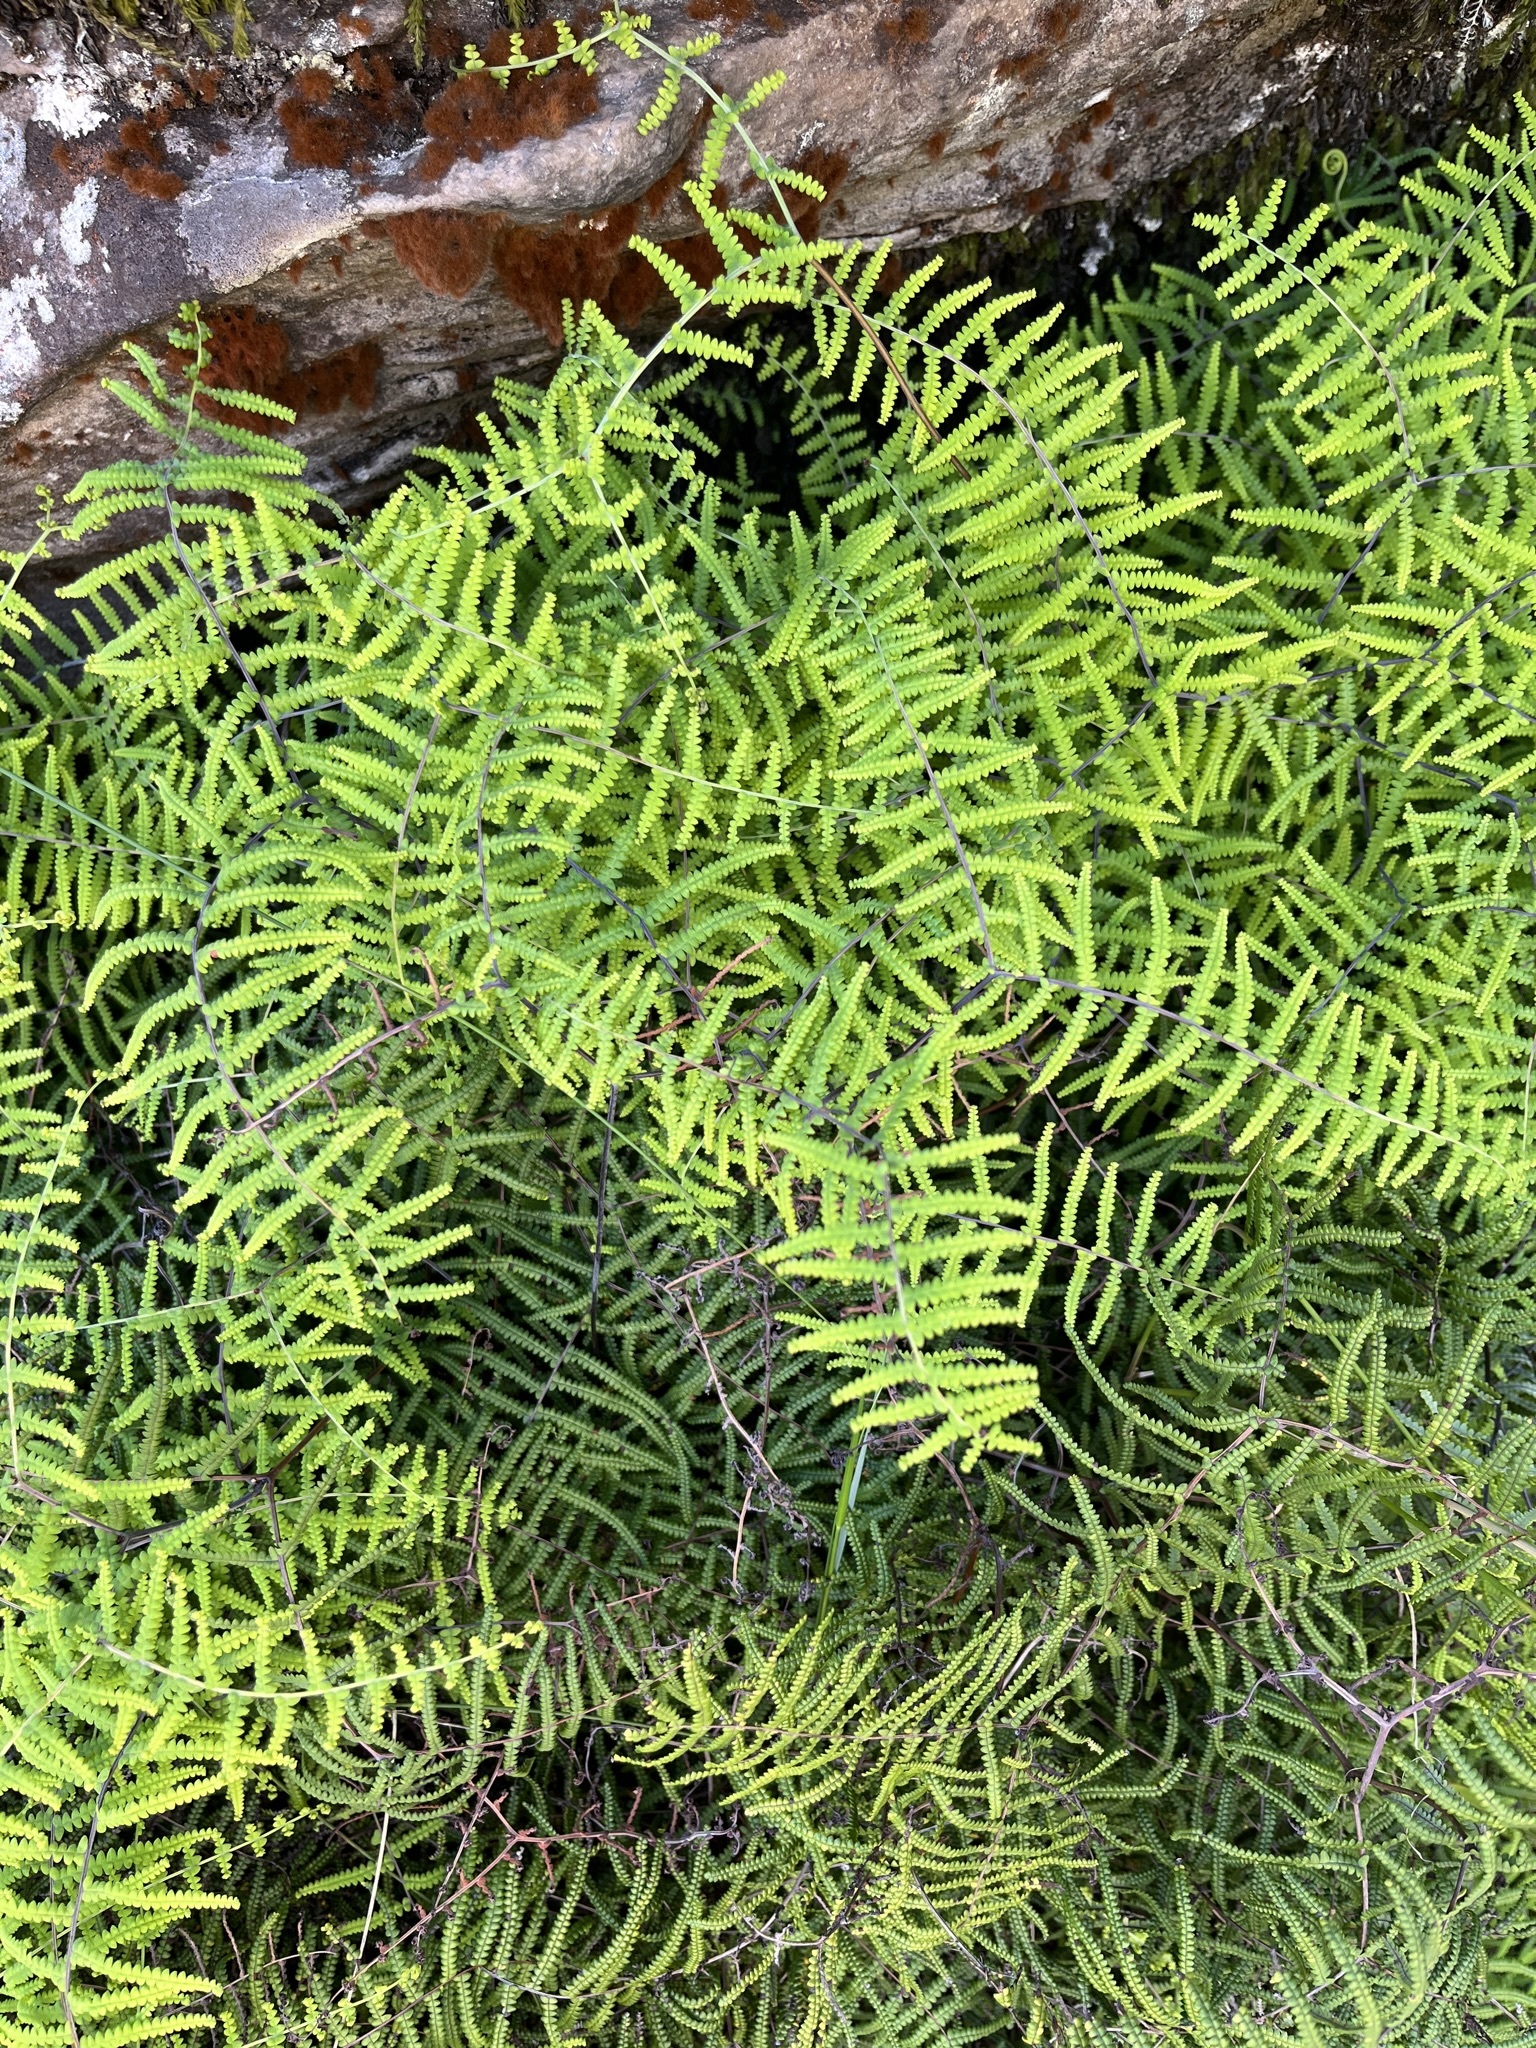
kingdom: Plantae
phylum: Tracheophyta
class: Polypodiopsida
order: Gleicheniales
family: Gleicheniaceae
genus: Gleichenia
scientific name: Gleichenia polypodioides
